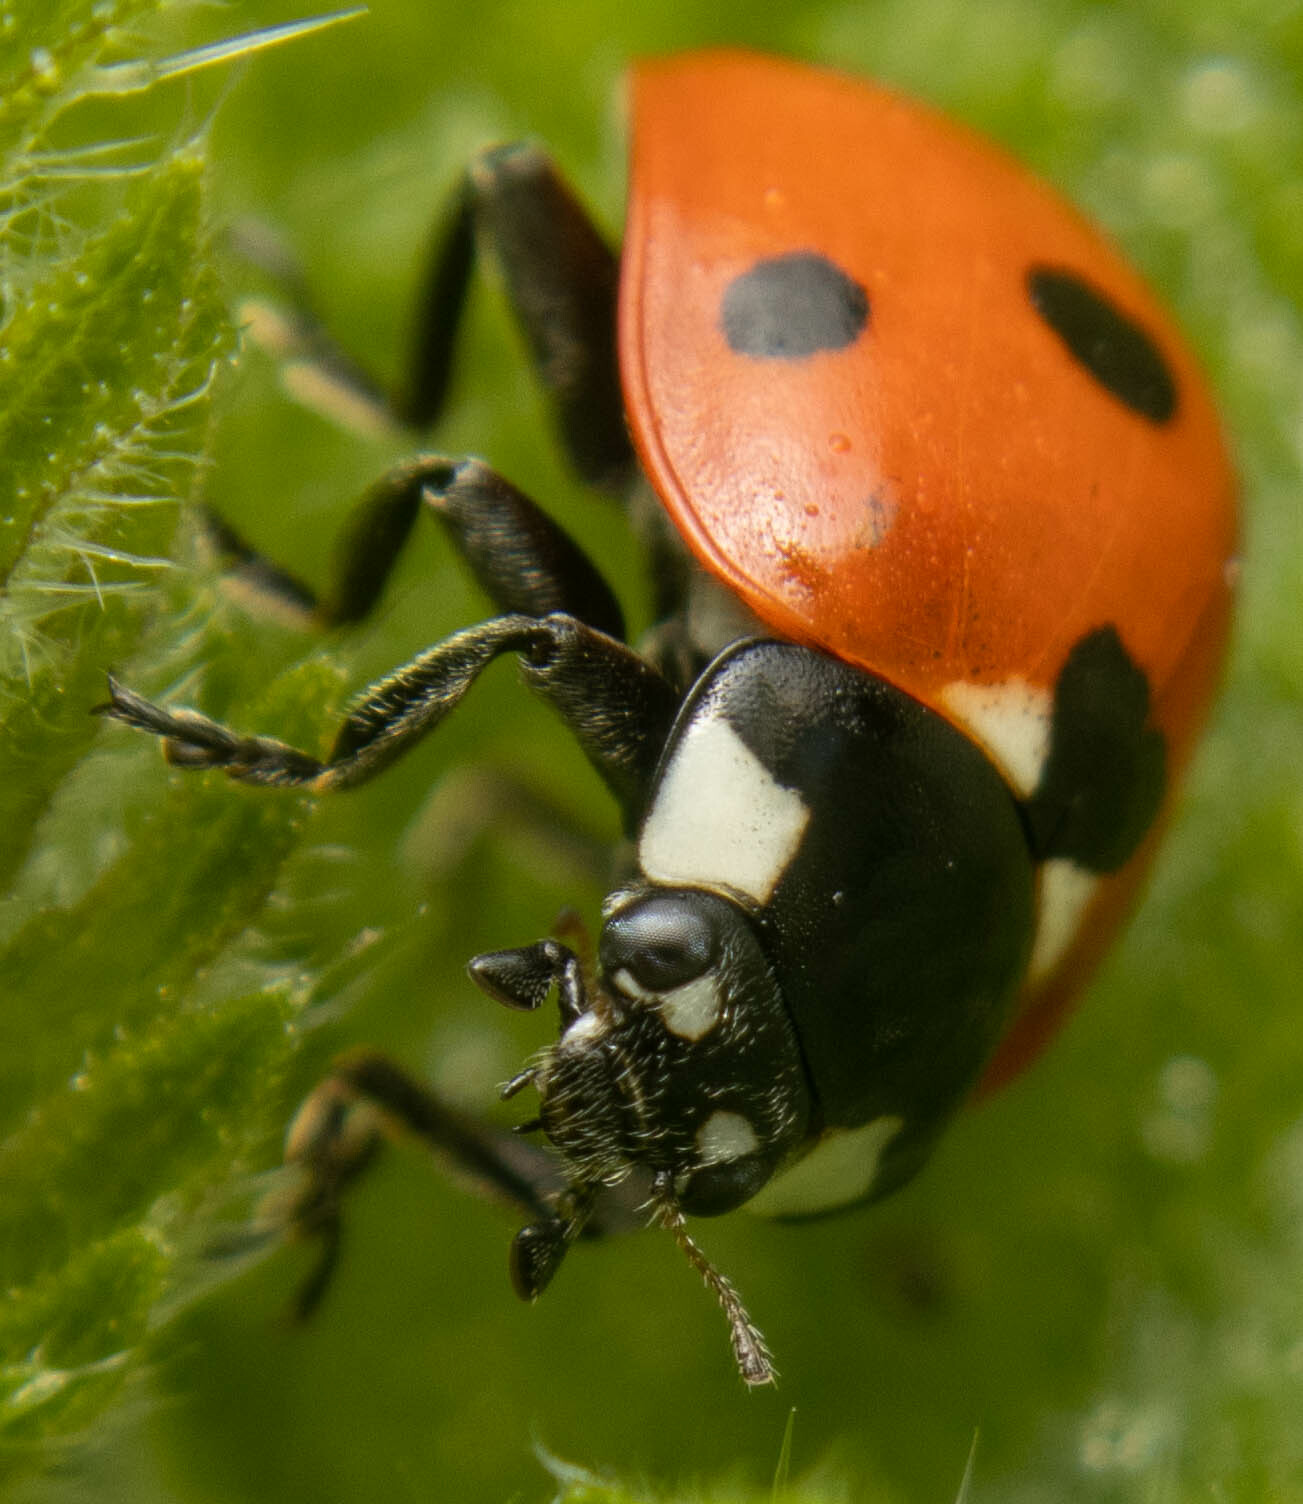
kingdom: Animalia
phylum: Arthropoda
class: Insecta
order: Coleoptera
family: Coccinellidae
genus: Coccinella
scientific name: Coccinella septempunctata
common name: Sevenspotted lady beetle
